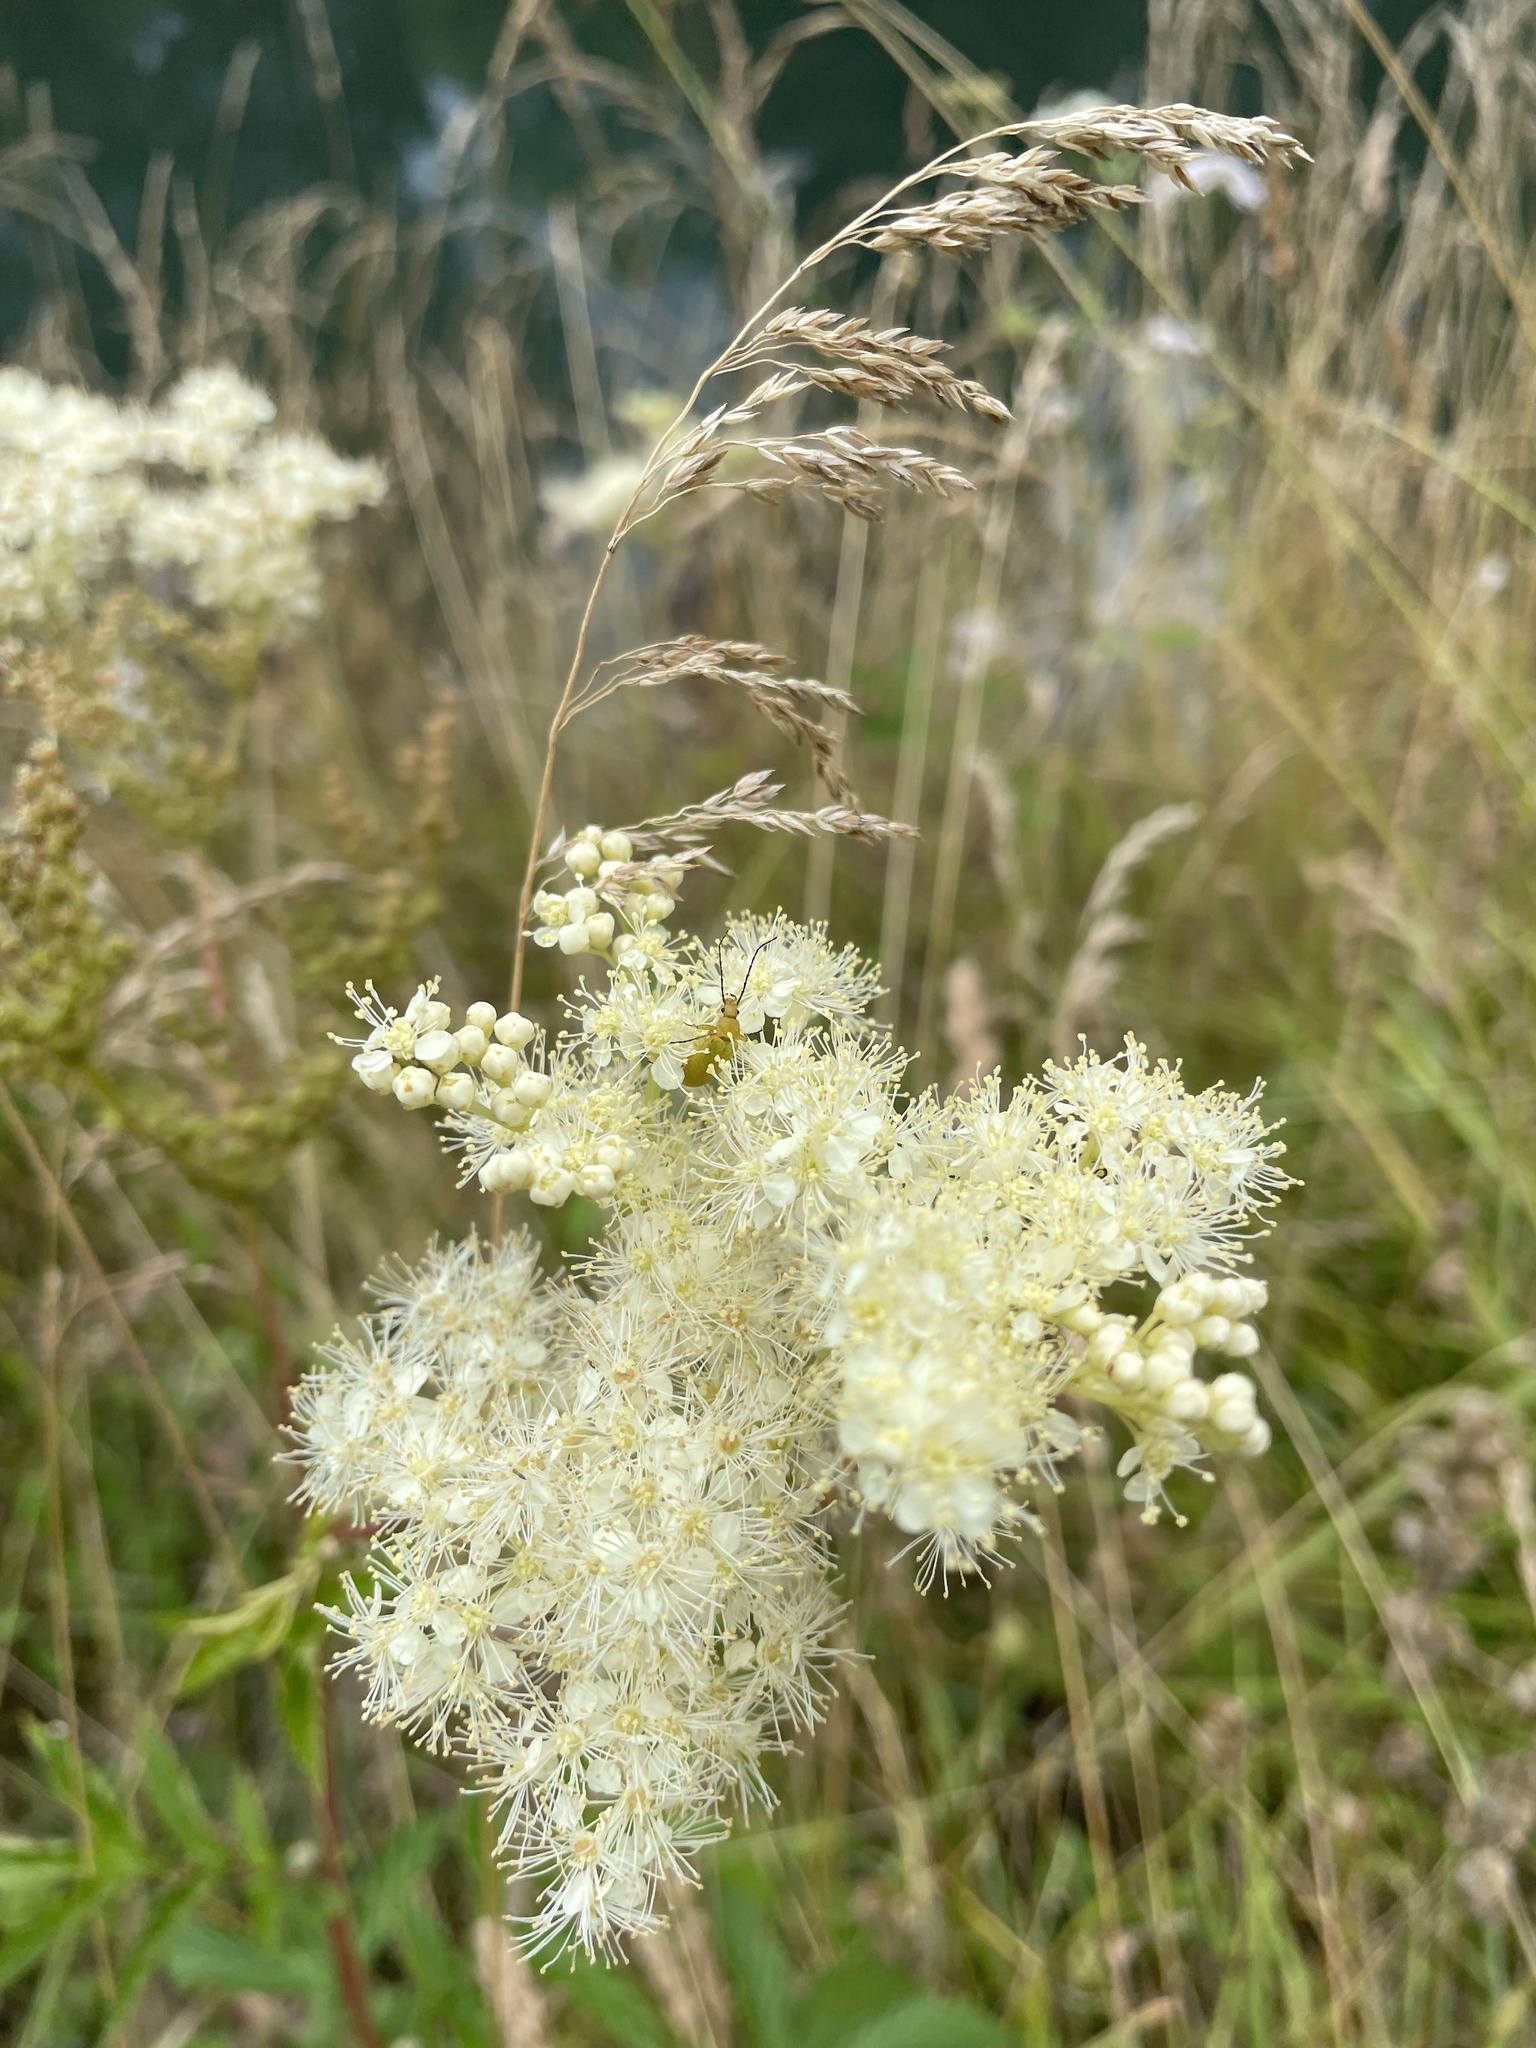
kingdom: Plantae
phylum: Tracheophyta
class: Magnoliopsida
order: Rosales
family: Rosaceae
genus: Filipendula
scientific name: Filipendula ulmaria
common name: Meadowsweet
